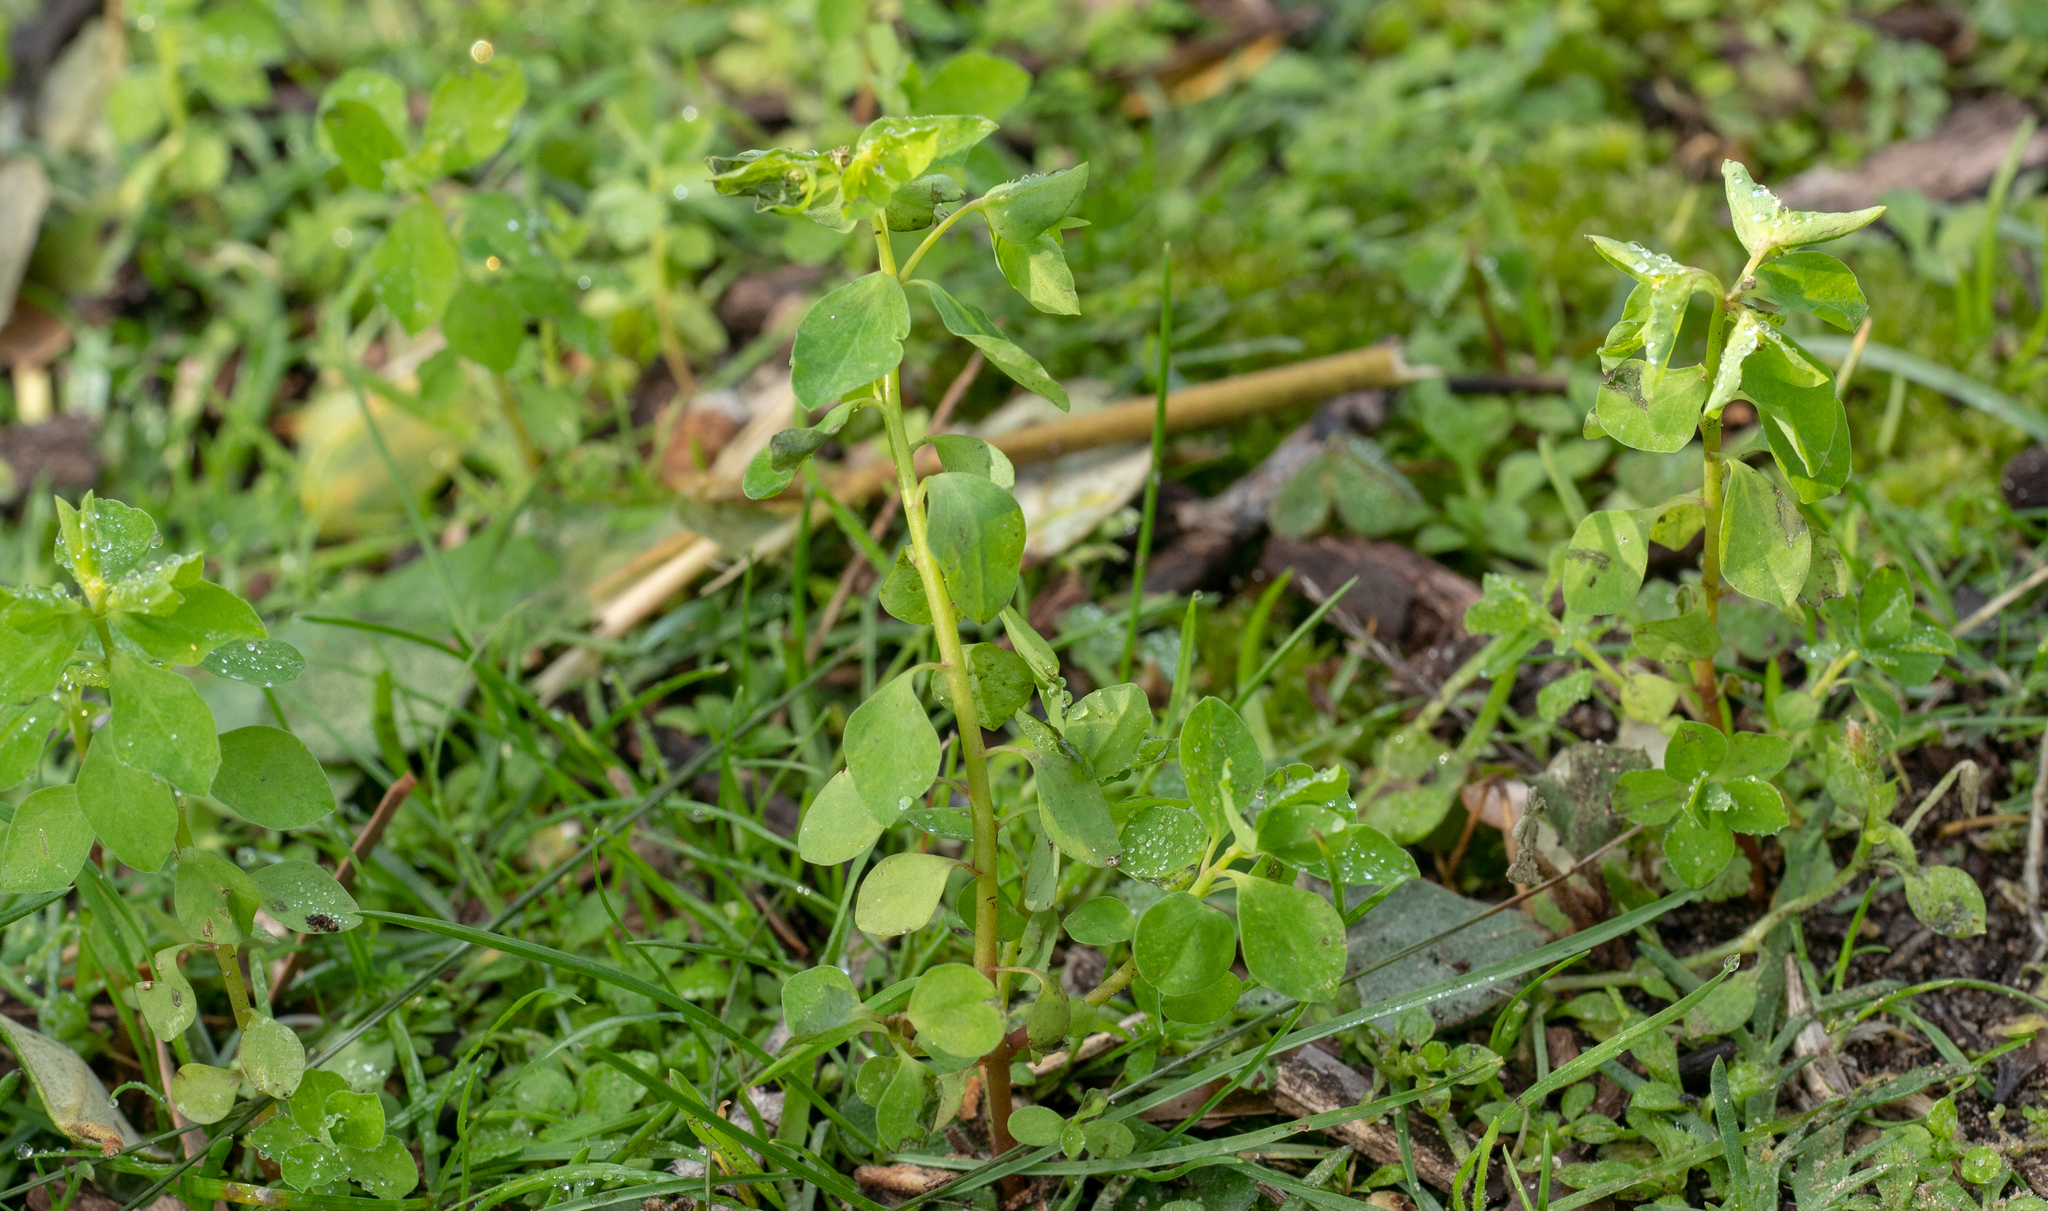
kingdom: Plantae
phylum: Tracheophyta
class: Magnoliopsida
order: Malpighiales
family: Euphorbiaceae
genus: Euphorbia
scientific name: Euphorbia peplus
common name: Petty spurge
